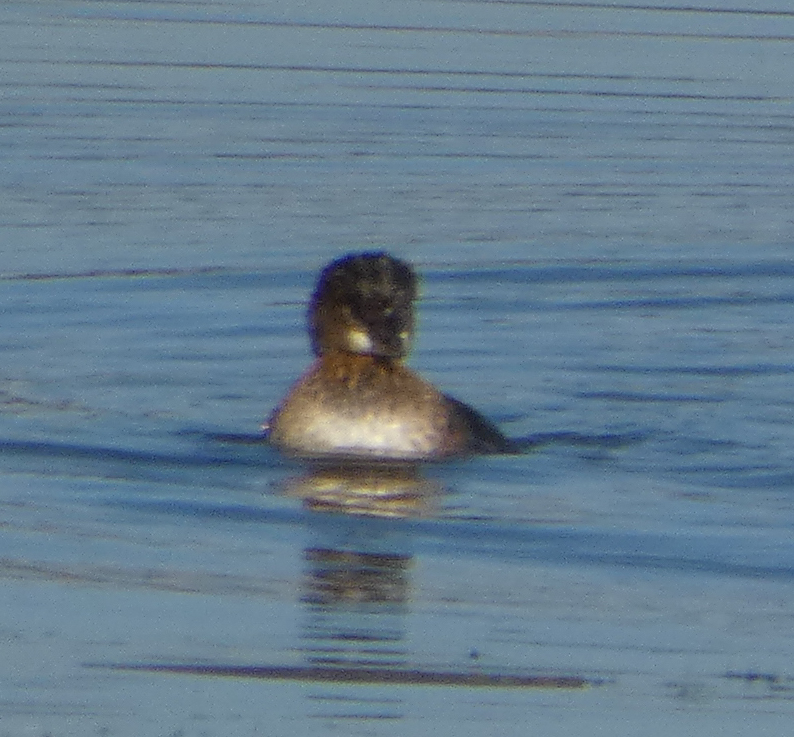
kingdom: Animalia
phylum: Chordata
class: Aves
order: Podicipediformes
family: Podicipedidae
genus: Podilymbus
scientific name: Podilymbus podiceps
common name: Pied-billed grebe
